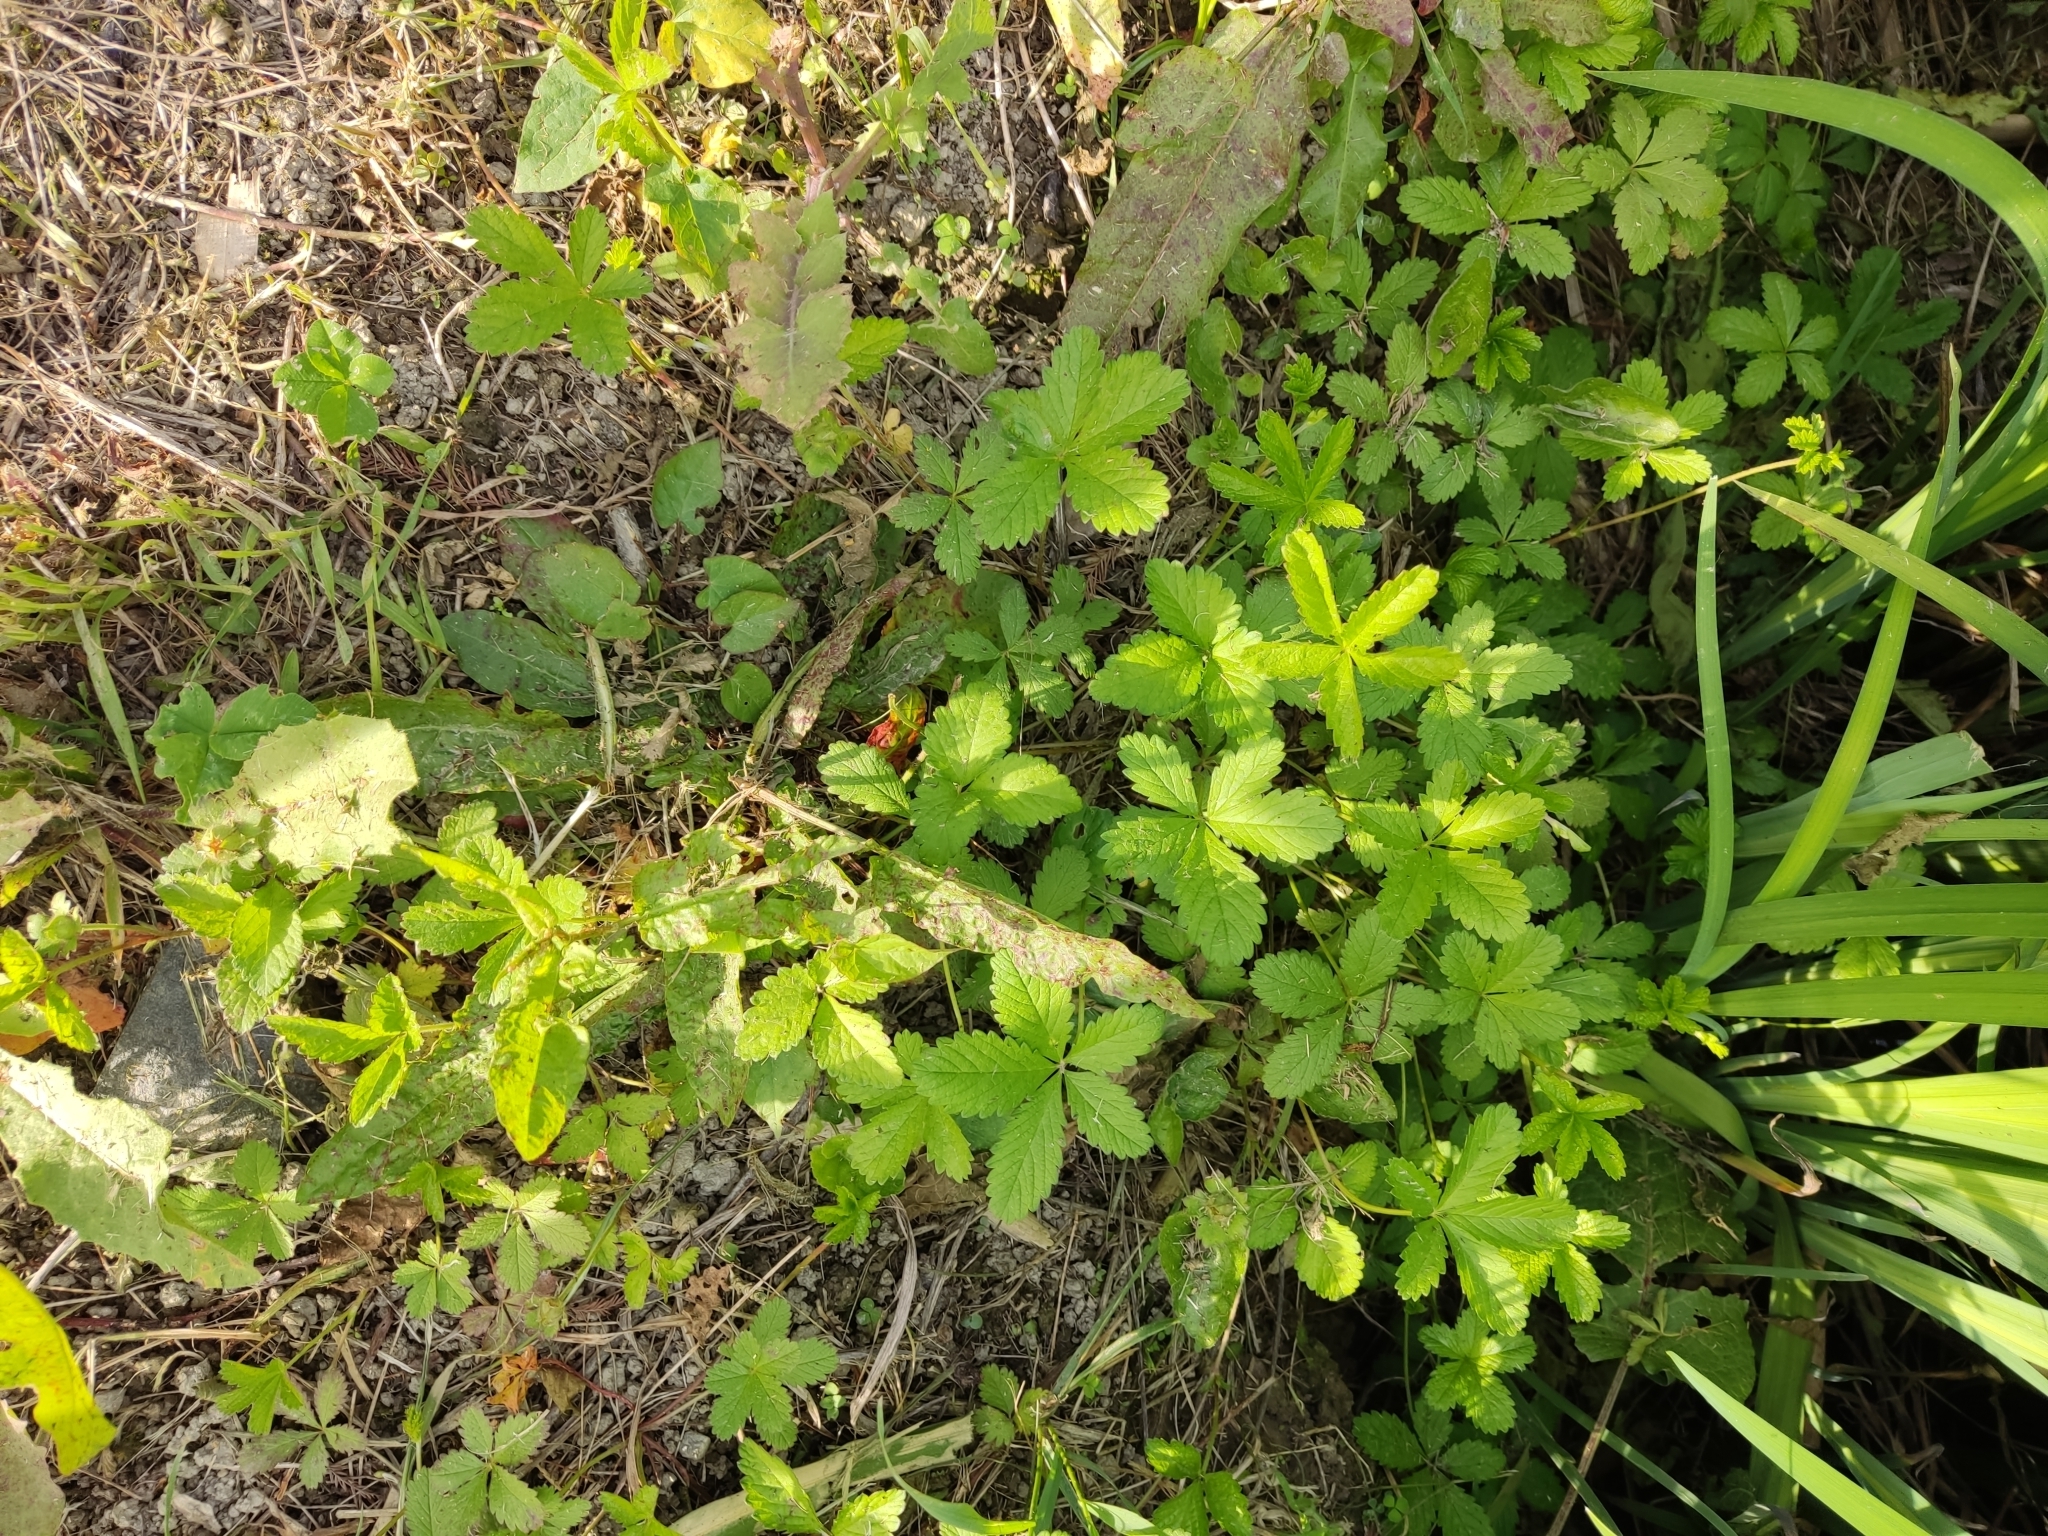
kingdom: Plantae
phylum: Tracheophyta
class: Magnoliopsida
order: Rosales
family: Rosaceae
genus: Potentilla
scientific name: Potentilla reptans
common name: Creeping cinquefoil
